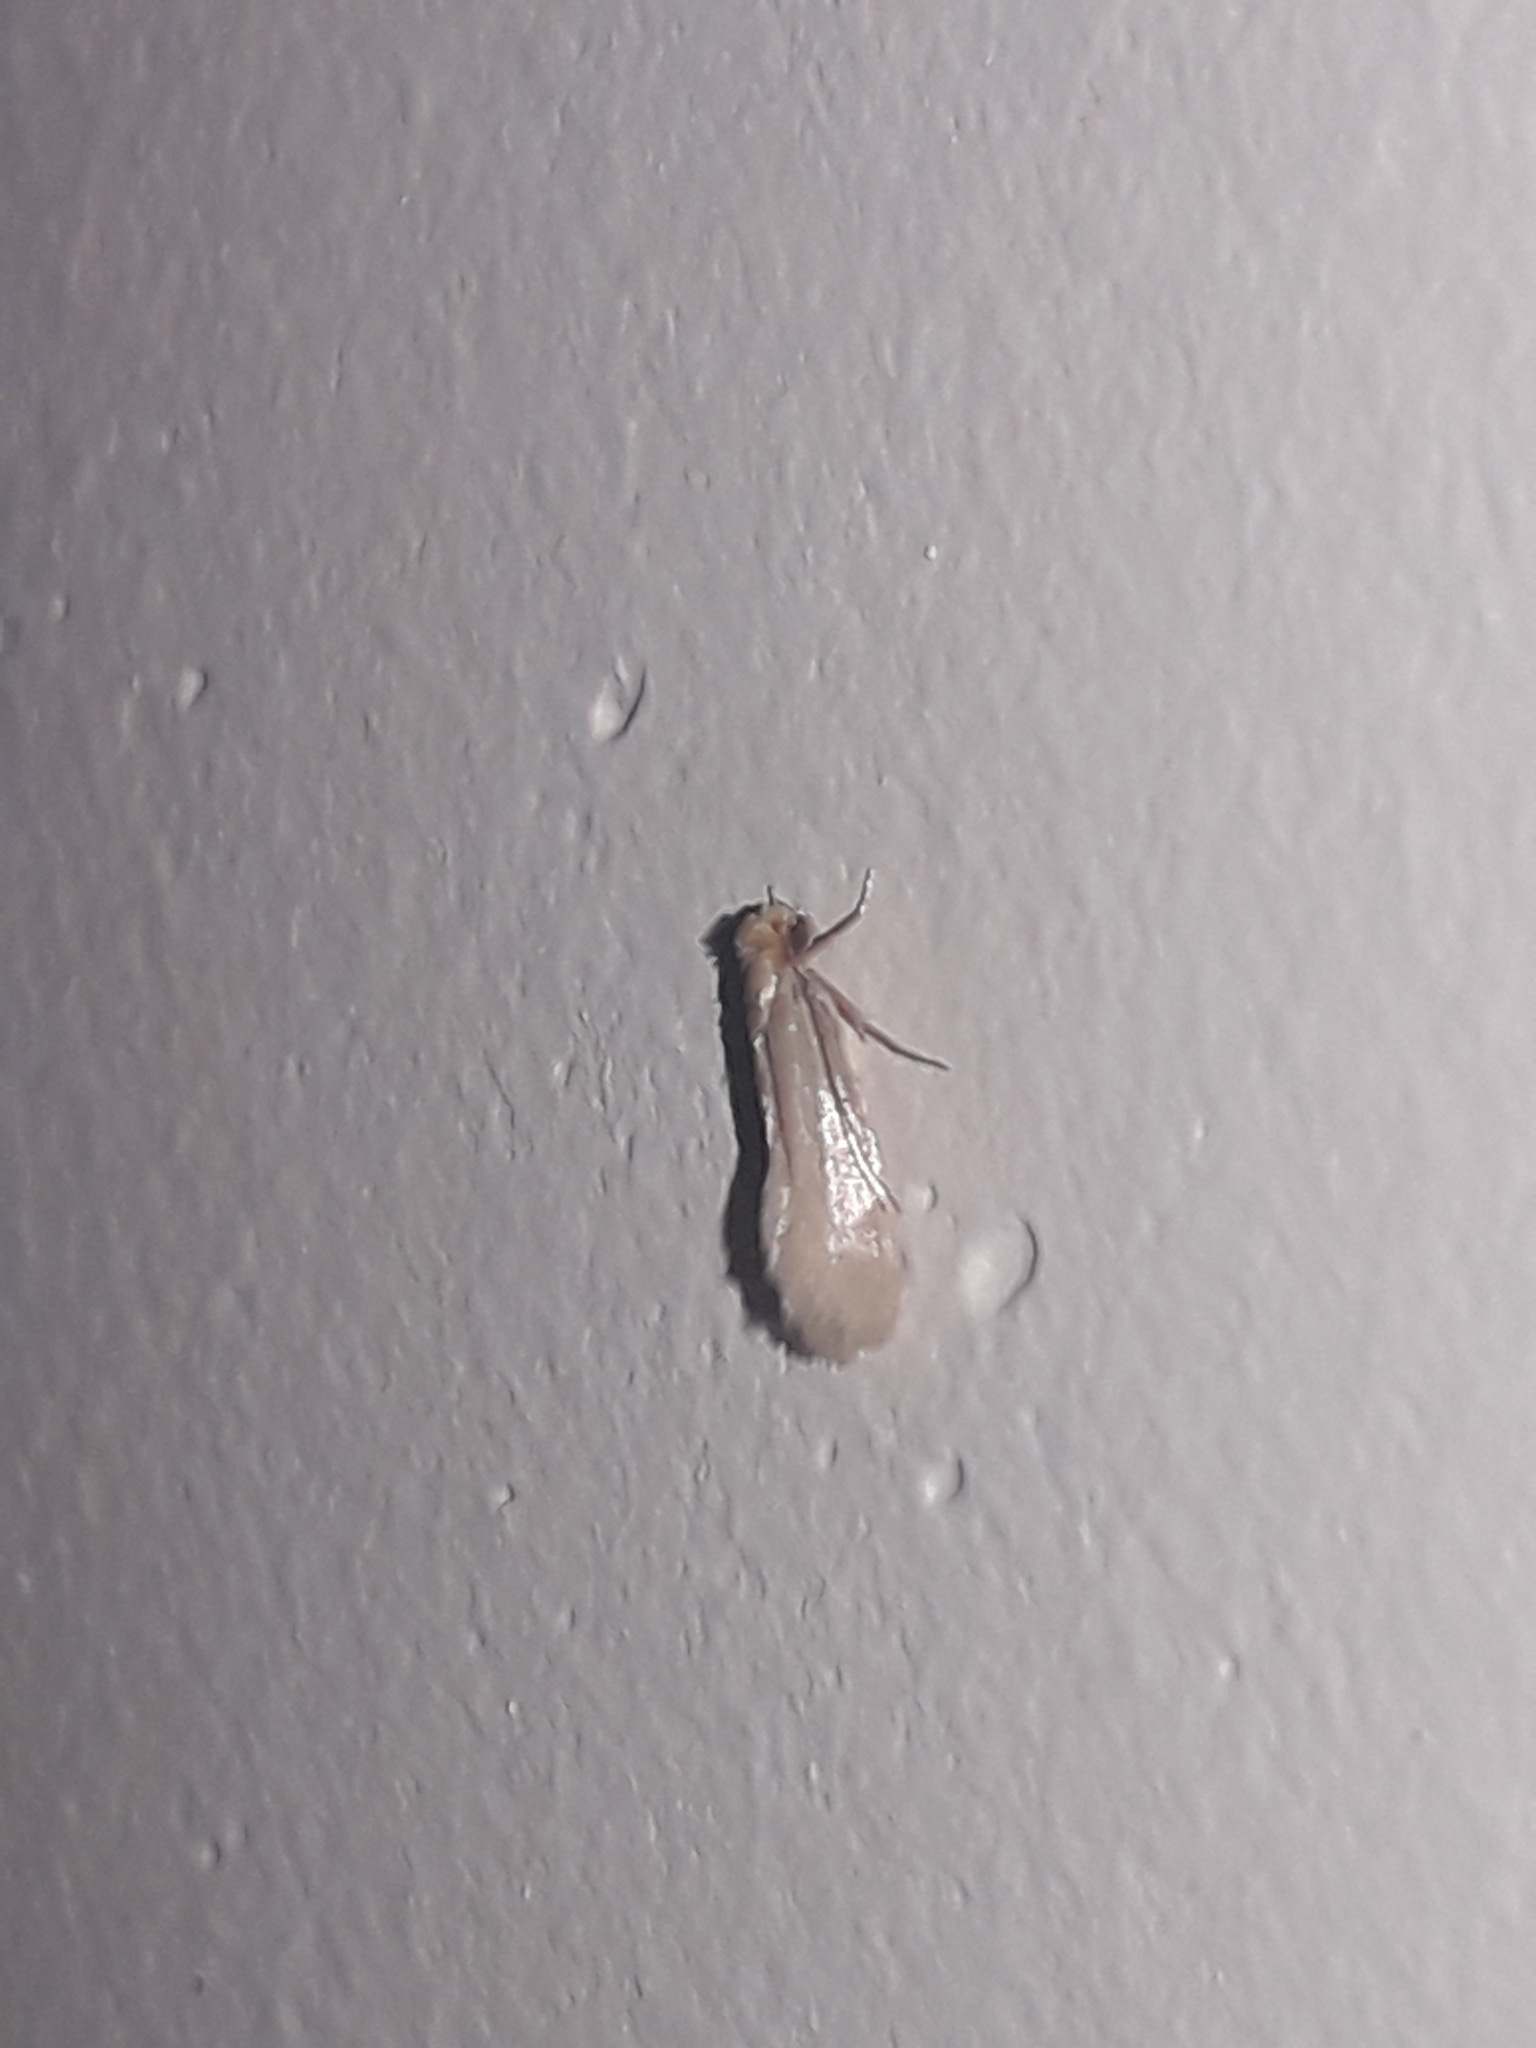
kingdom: Animalia
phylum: Arthropoda
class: Insecta
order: Lepidoptera
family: Tineidae
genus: Tineola
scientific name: Tineola bisselliella
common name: Webbing clothes moth
